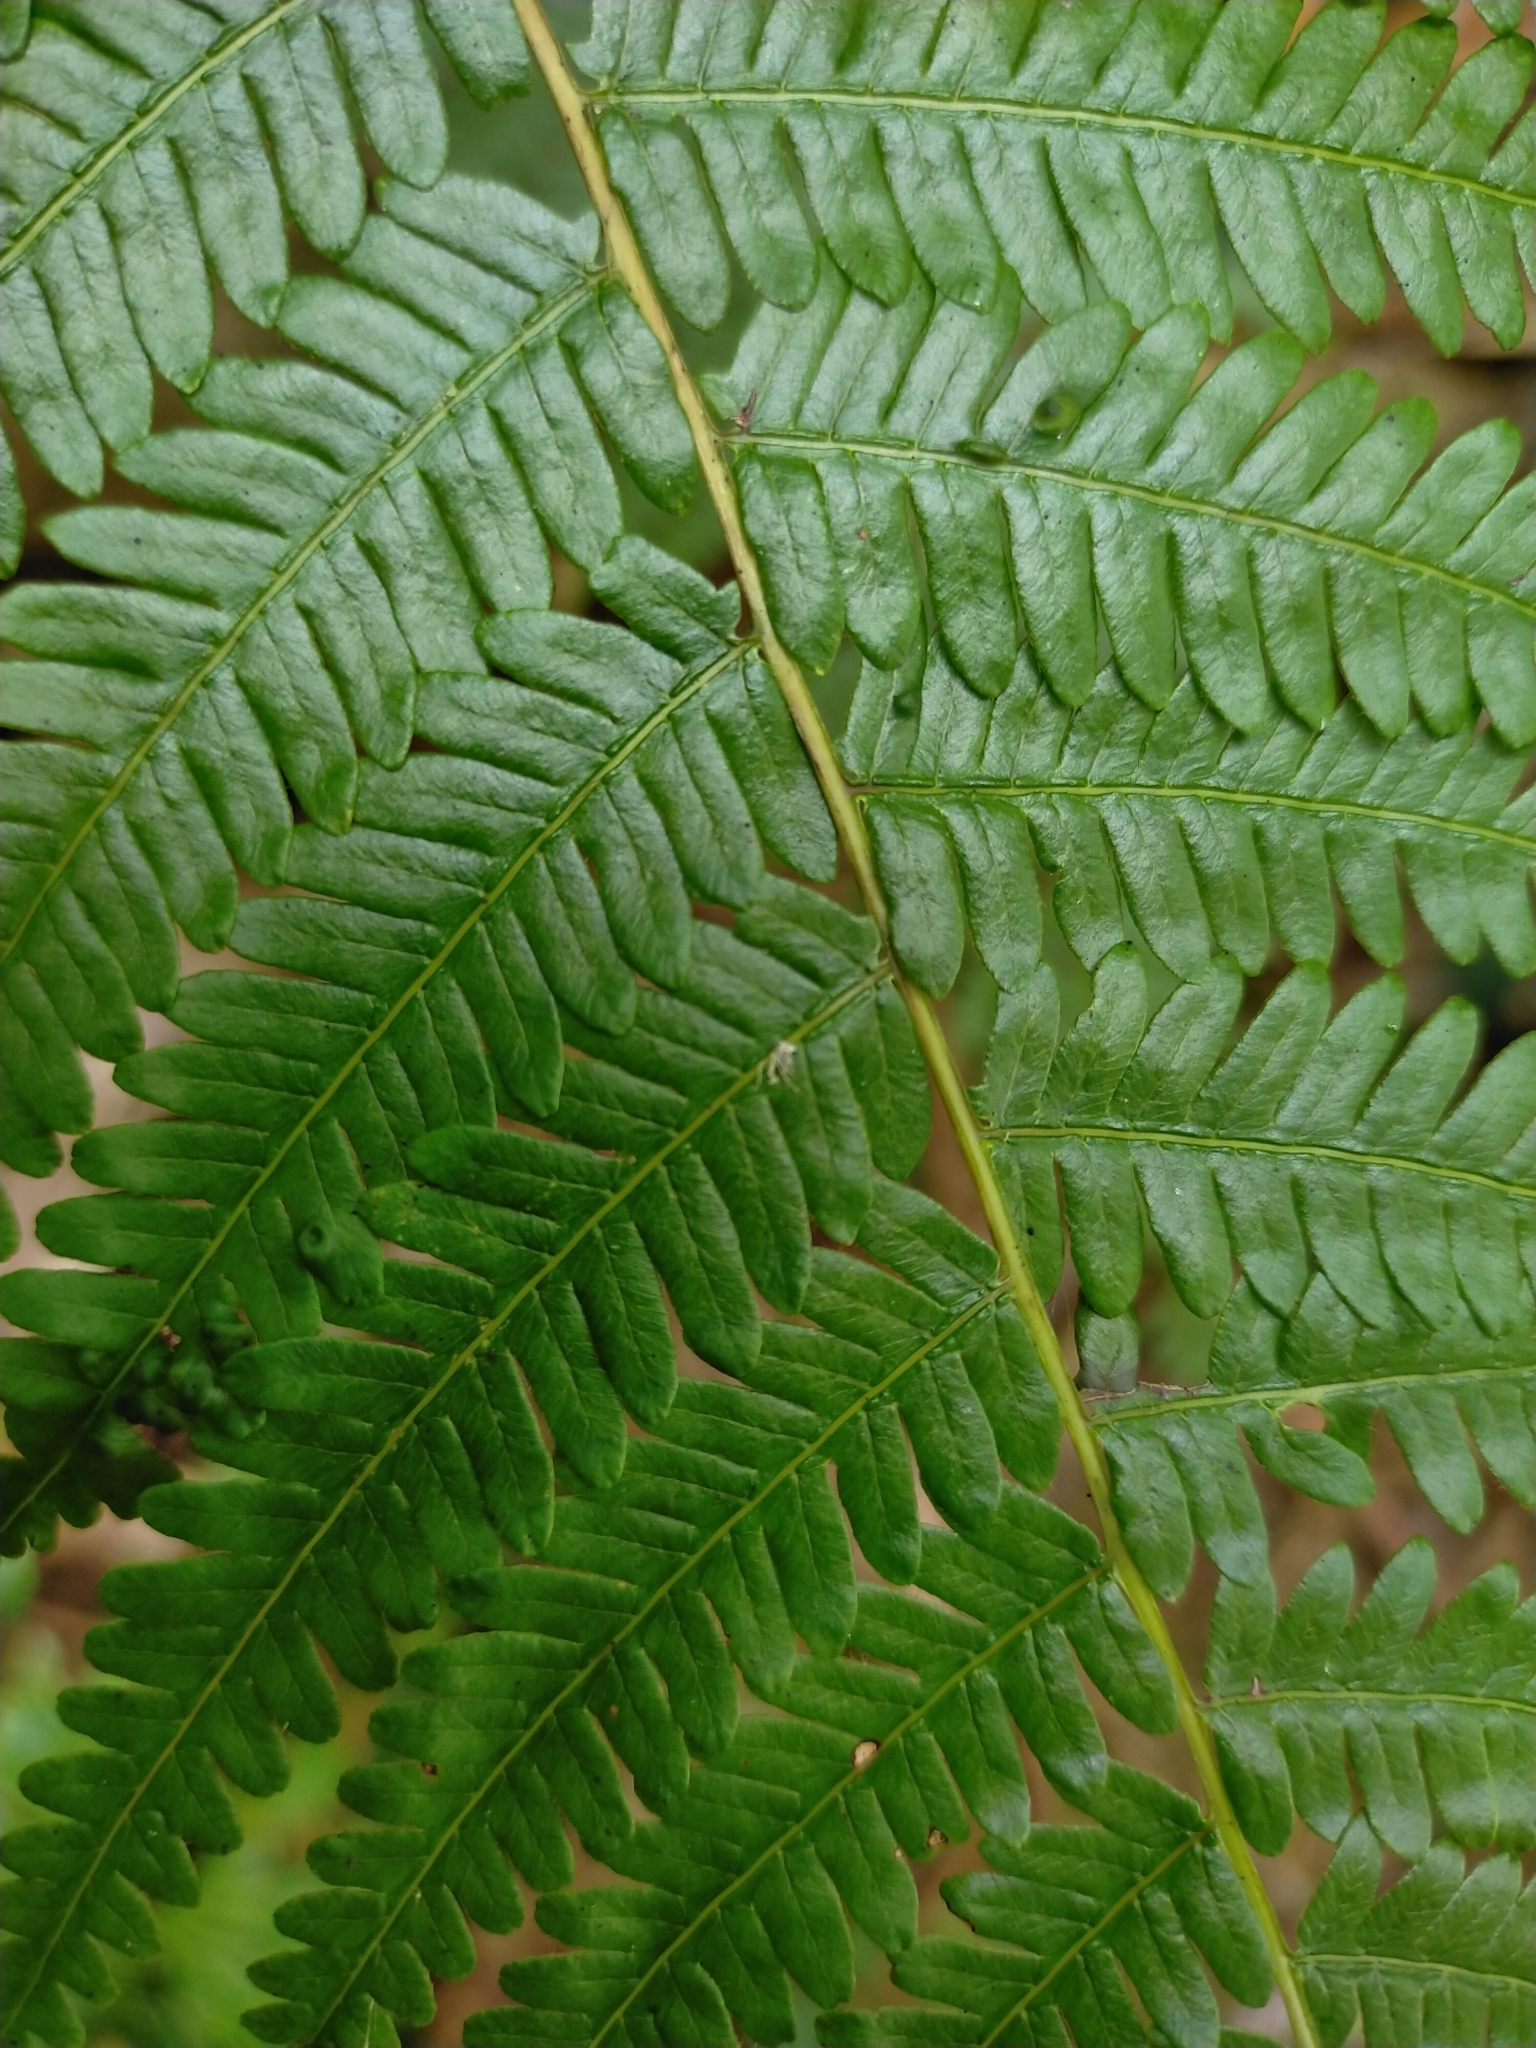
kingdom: Plantae
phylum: Tracheophyta
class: Polypodiopsida
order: Gleicheniales
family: Gleicheniaceae
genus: Diplopterygium
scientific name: Diplopterygium glaucum
